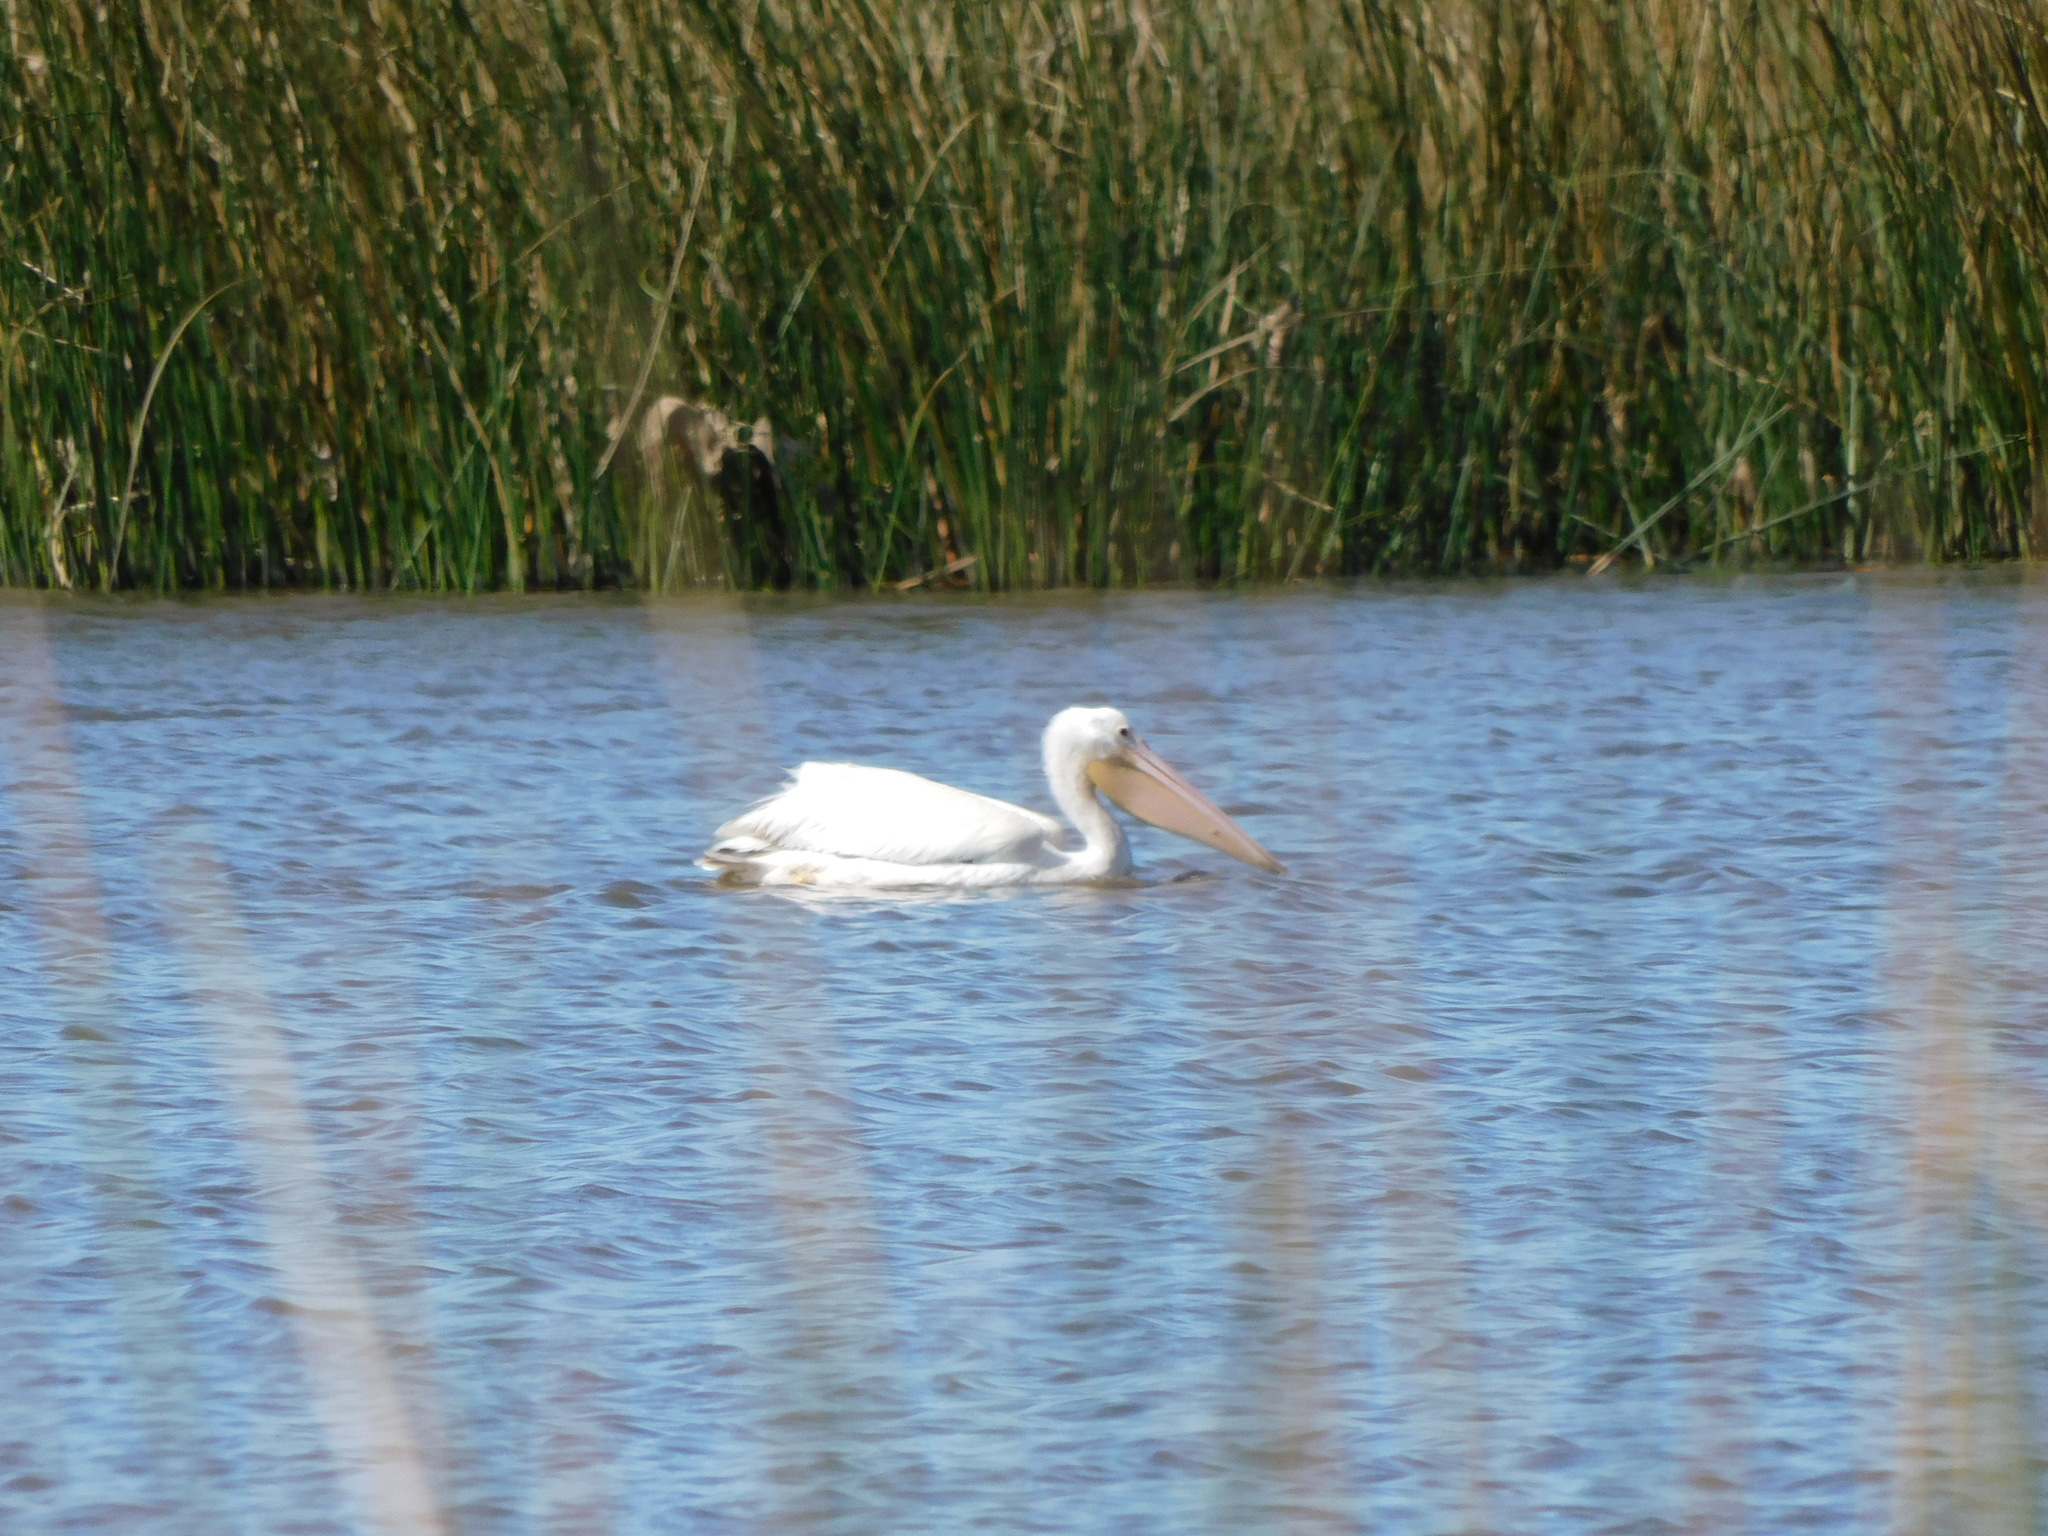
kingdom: Animalia
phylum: Chordata
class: Aves
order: Pelecaniformes
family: Pelecanidae
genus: Pelecanus
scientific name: Pelecanus erythrorhynchos
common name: American white pelican
